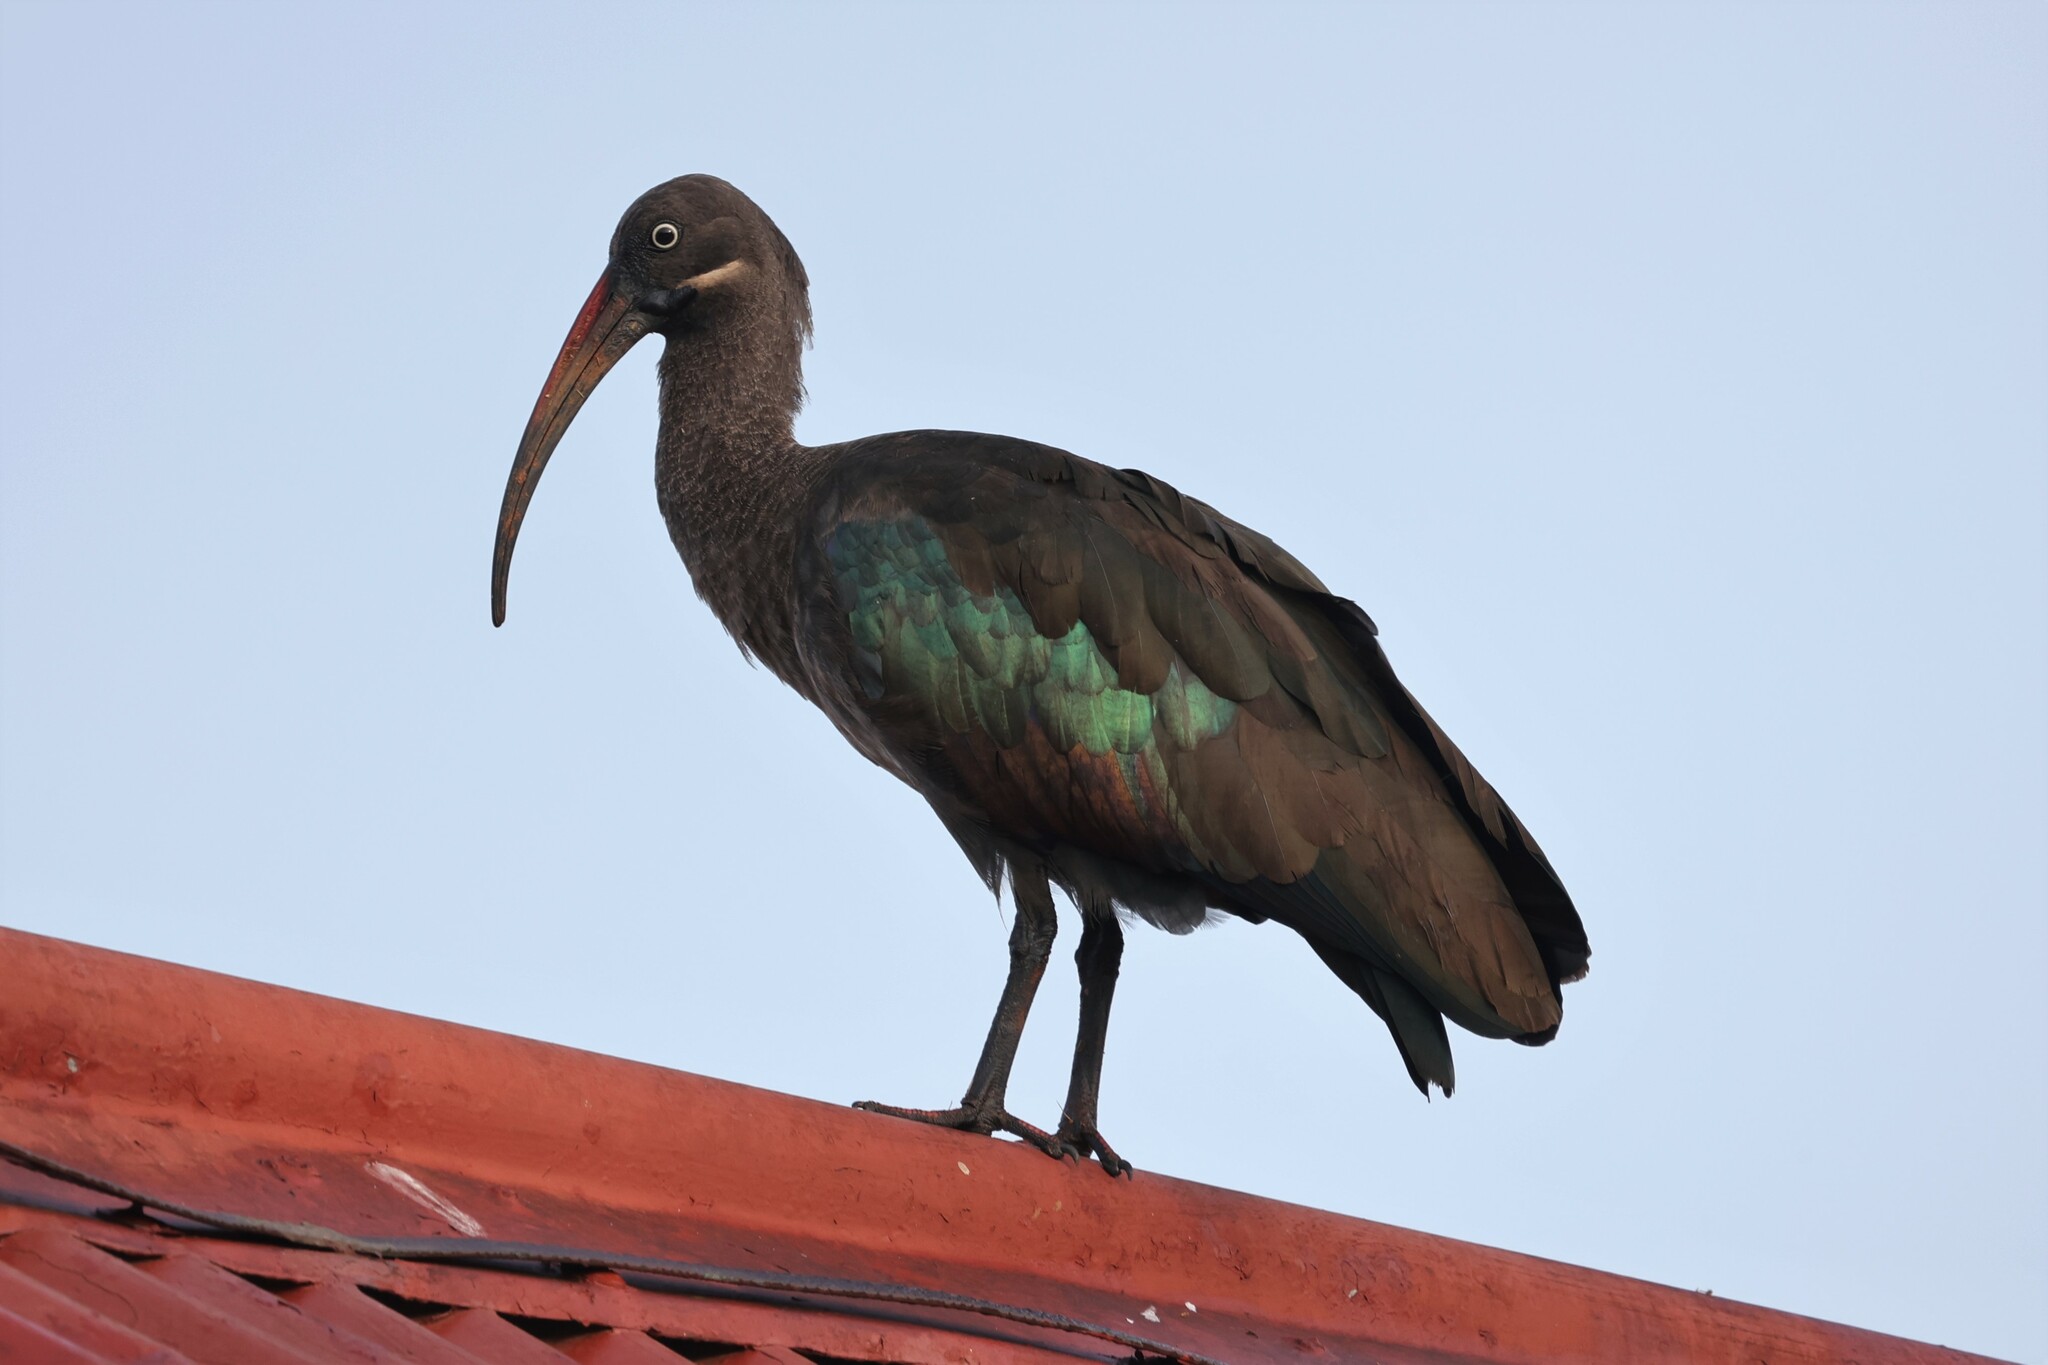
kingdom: Animalia
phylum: Chordata
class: Aves
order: Pelecaniformes
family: Threskiornithidae
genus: Bostrychia
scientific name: Bostrychia hagedash
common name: Hadada ibis
